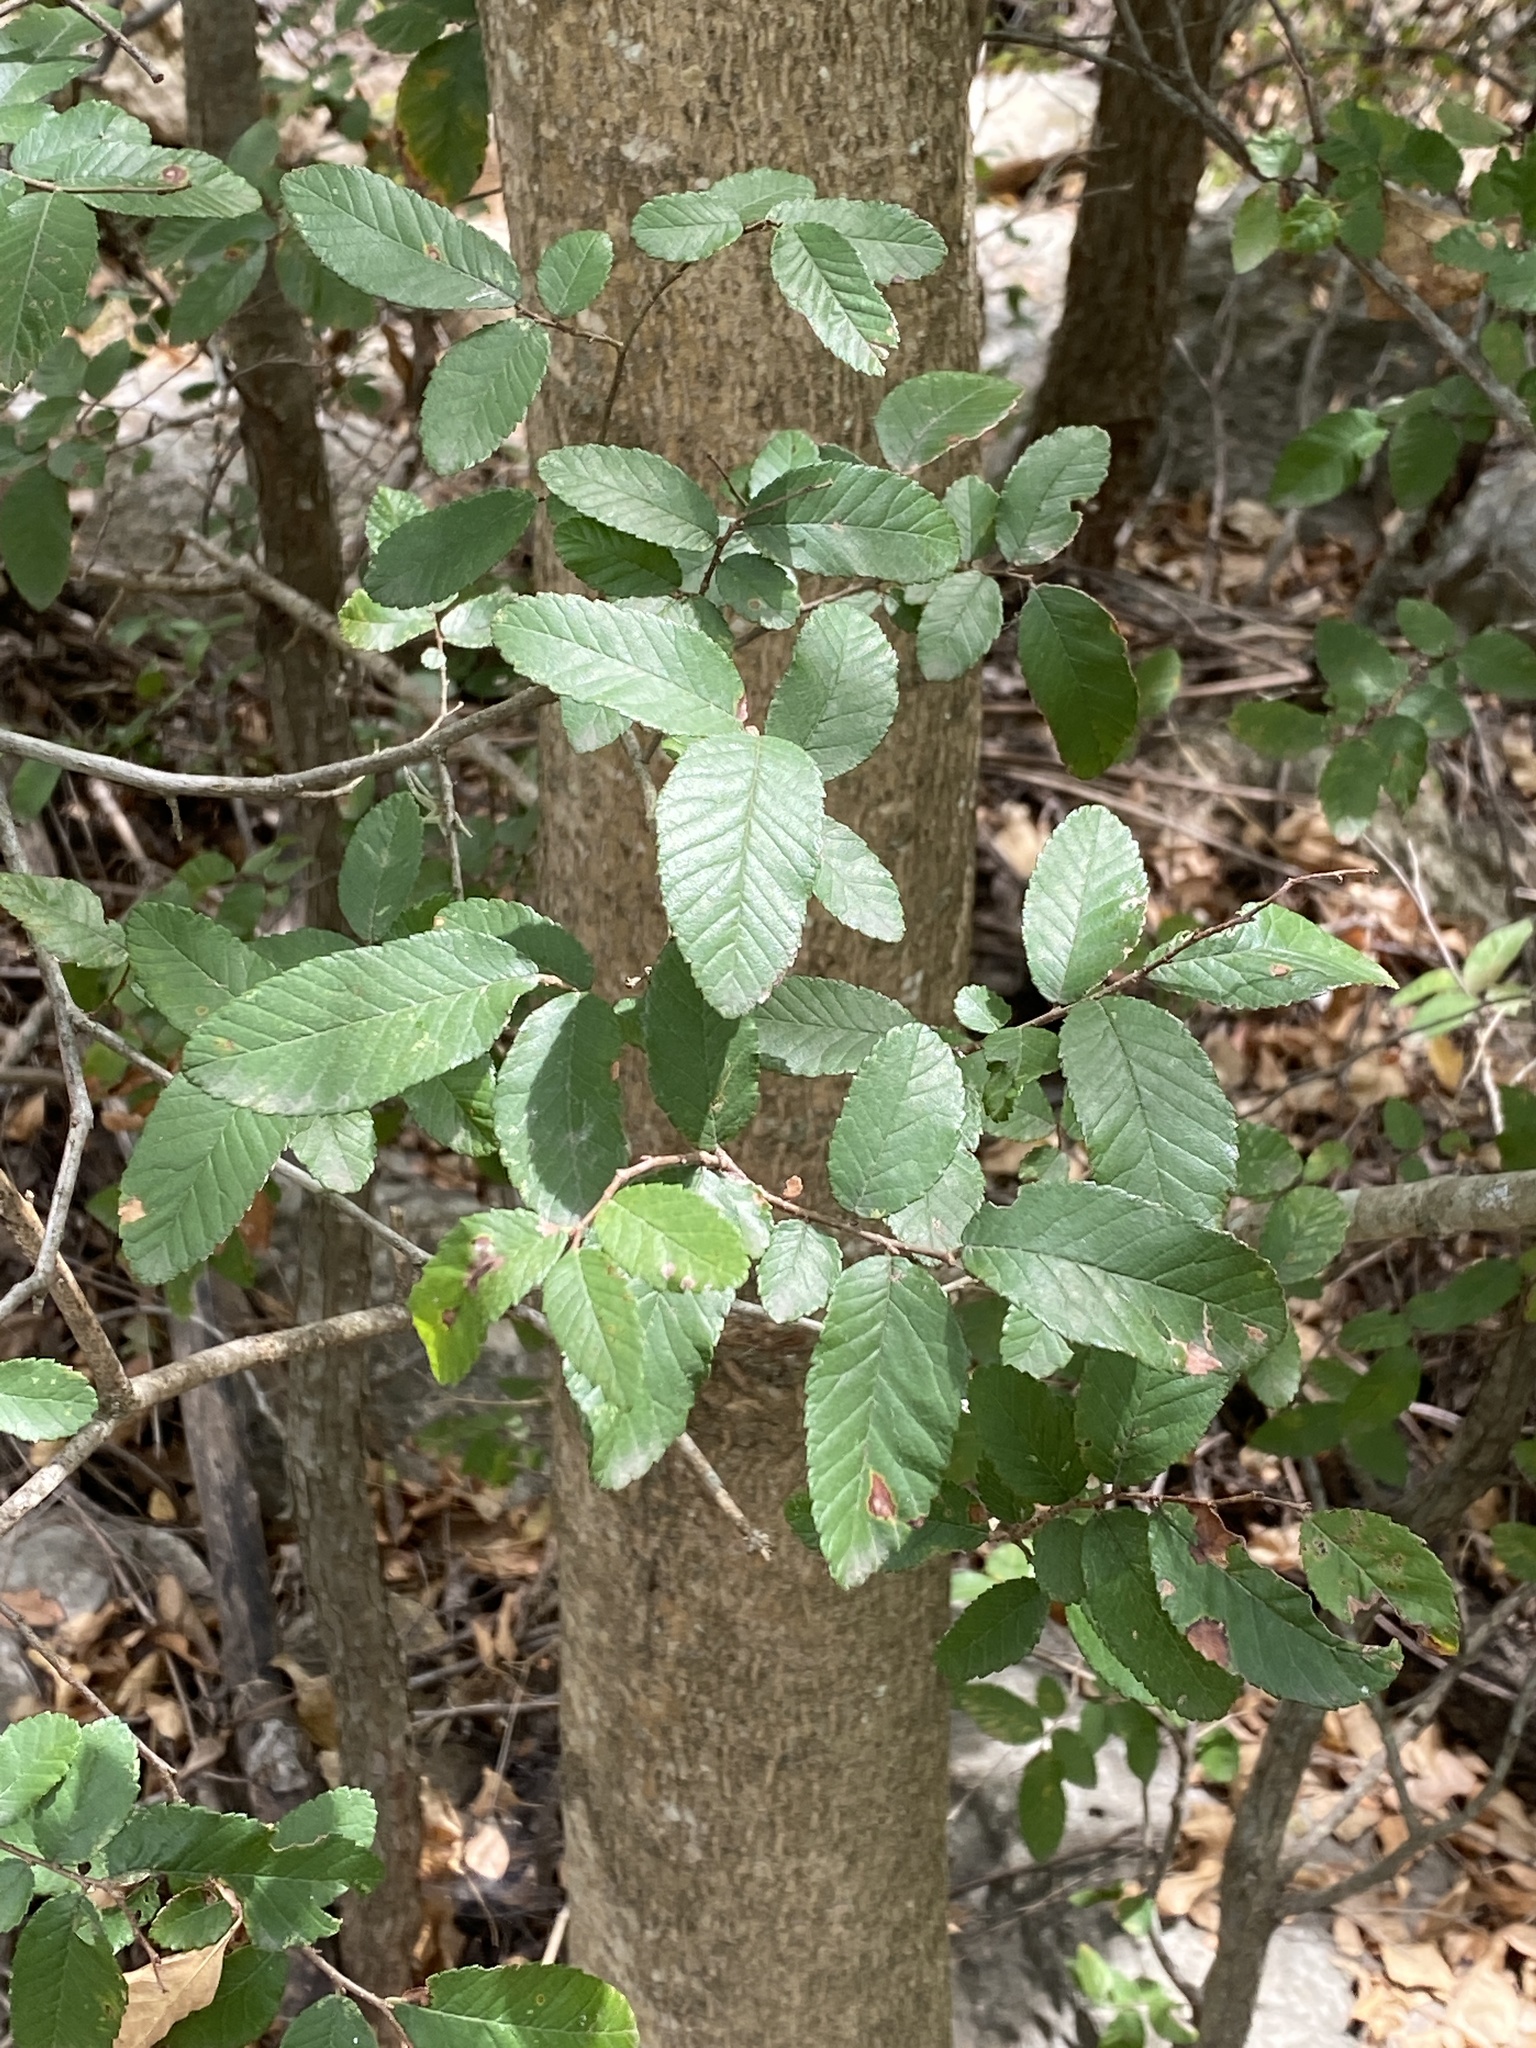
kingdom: Plantae
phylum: Tracheophyta
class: Magnoliopsida
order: Rosales
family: Ulmaceae
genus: Ulmus
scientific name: Ulmus crassifolia
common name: Basket elm
